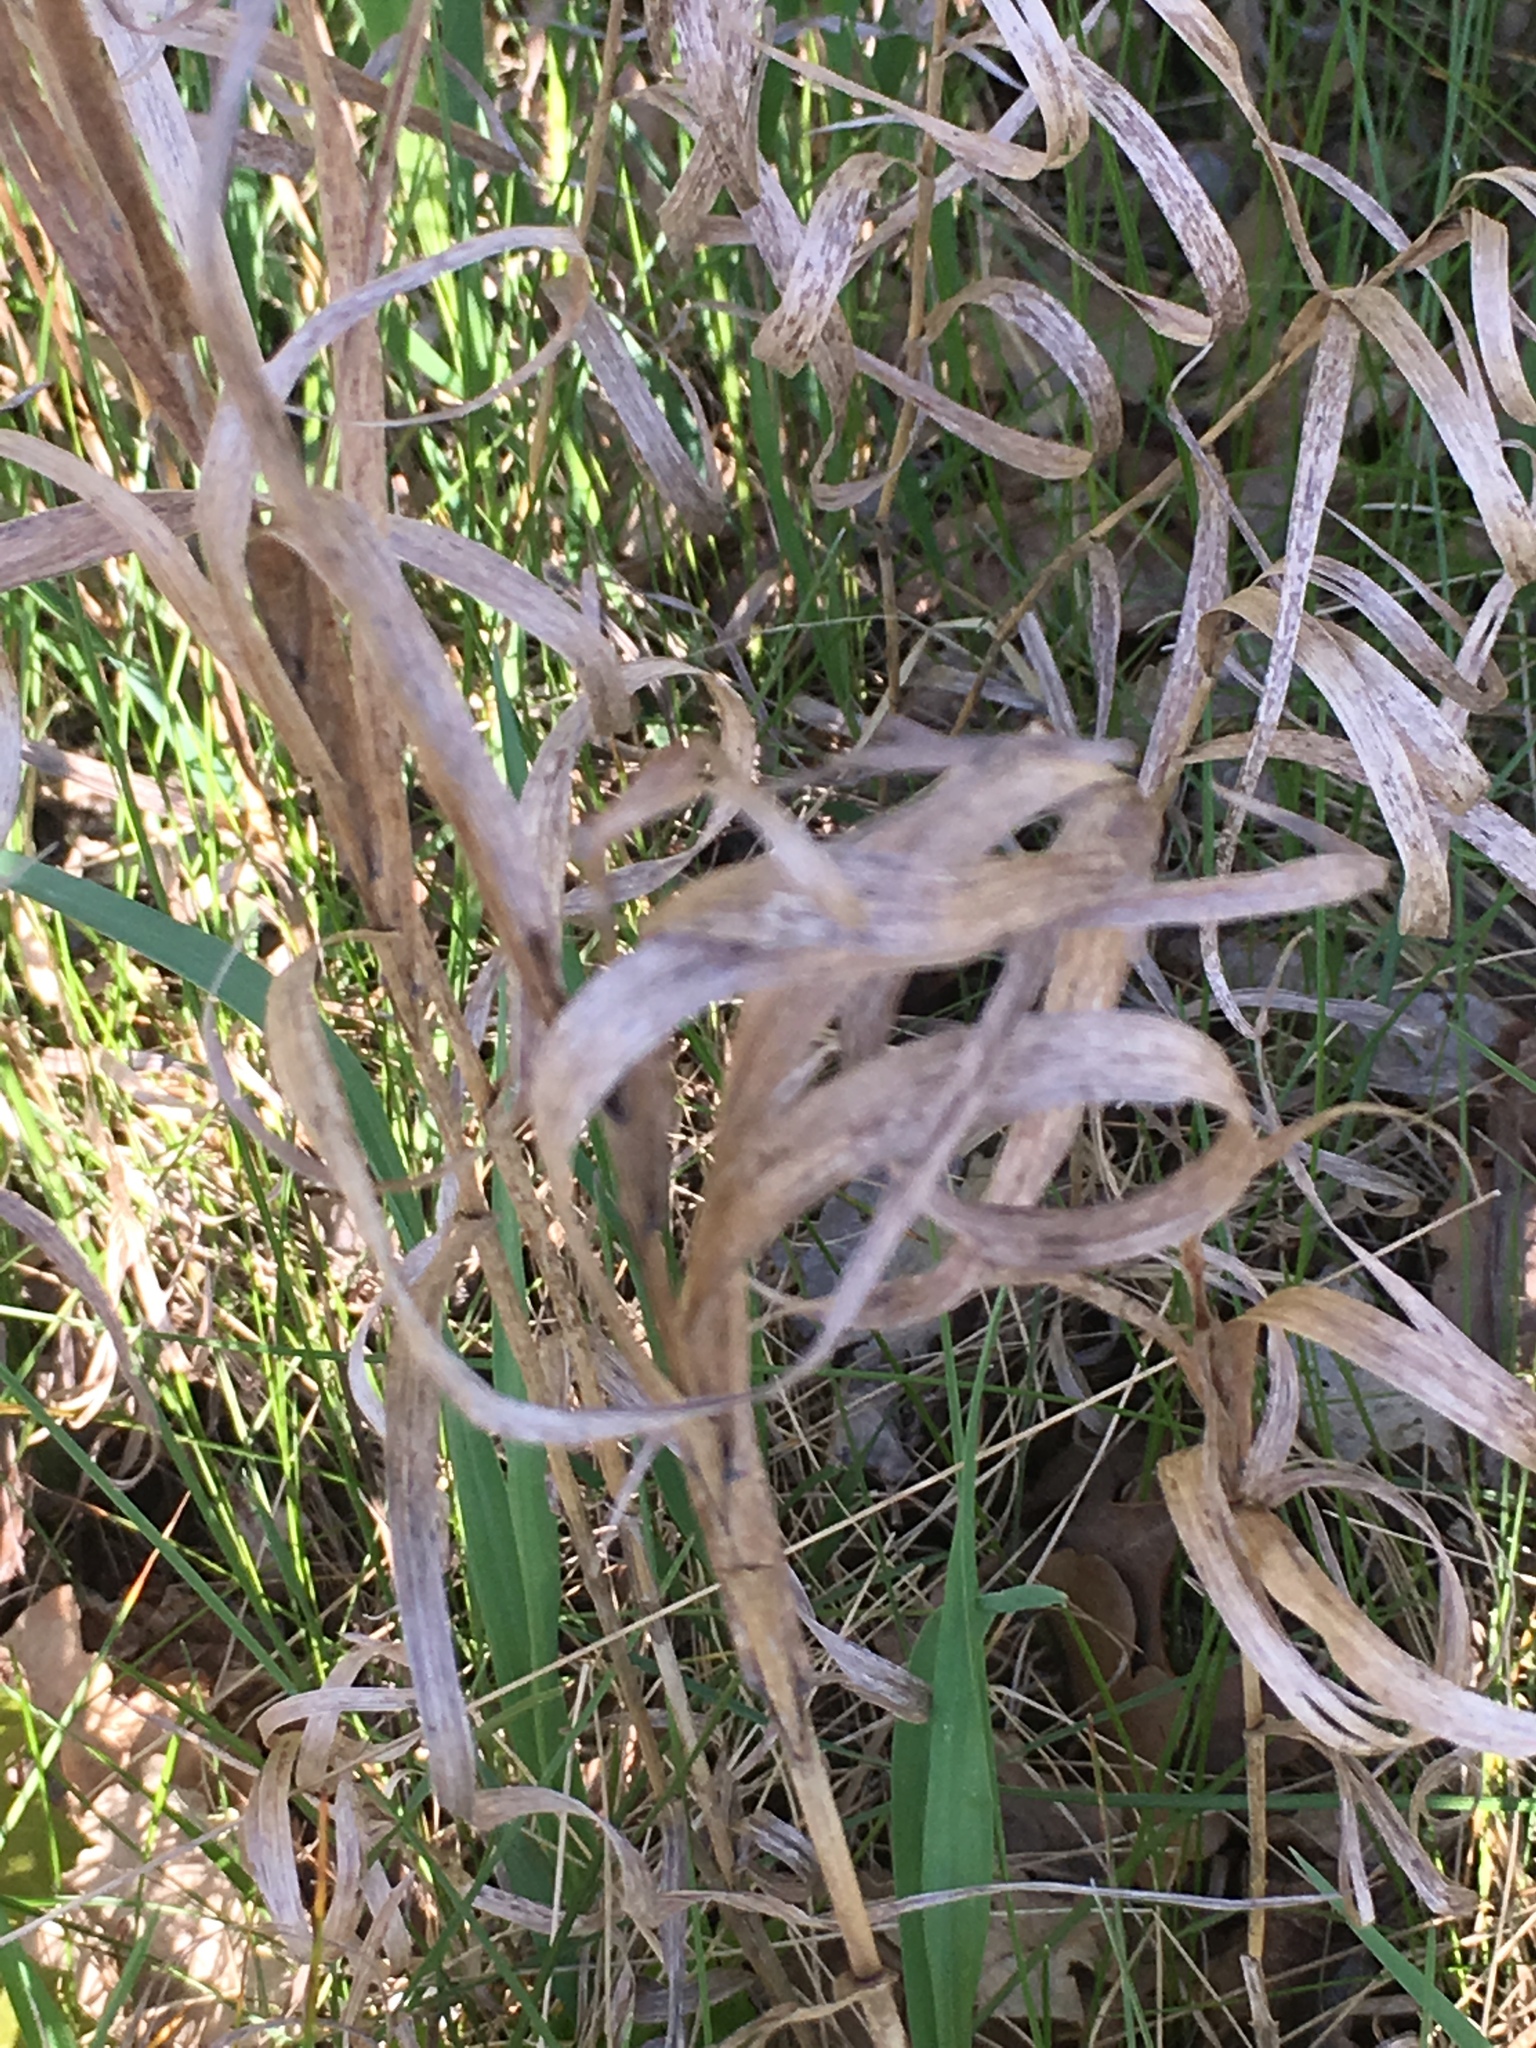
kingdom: Plantae
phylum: Tracheophyta
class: Liliopsida
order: Poales
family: Poaceae
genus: Phalaris
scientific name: Phalaris arundinacea
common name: Reed canary-grass
